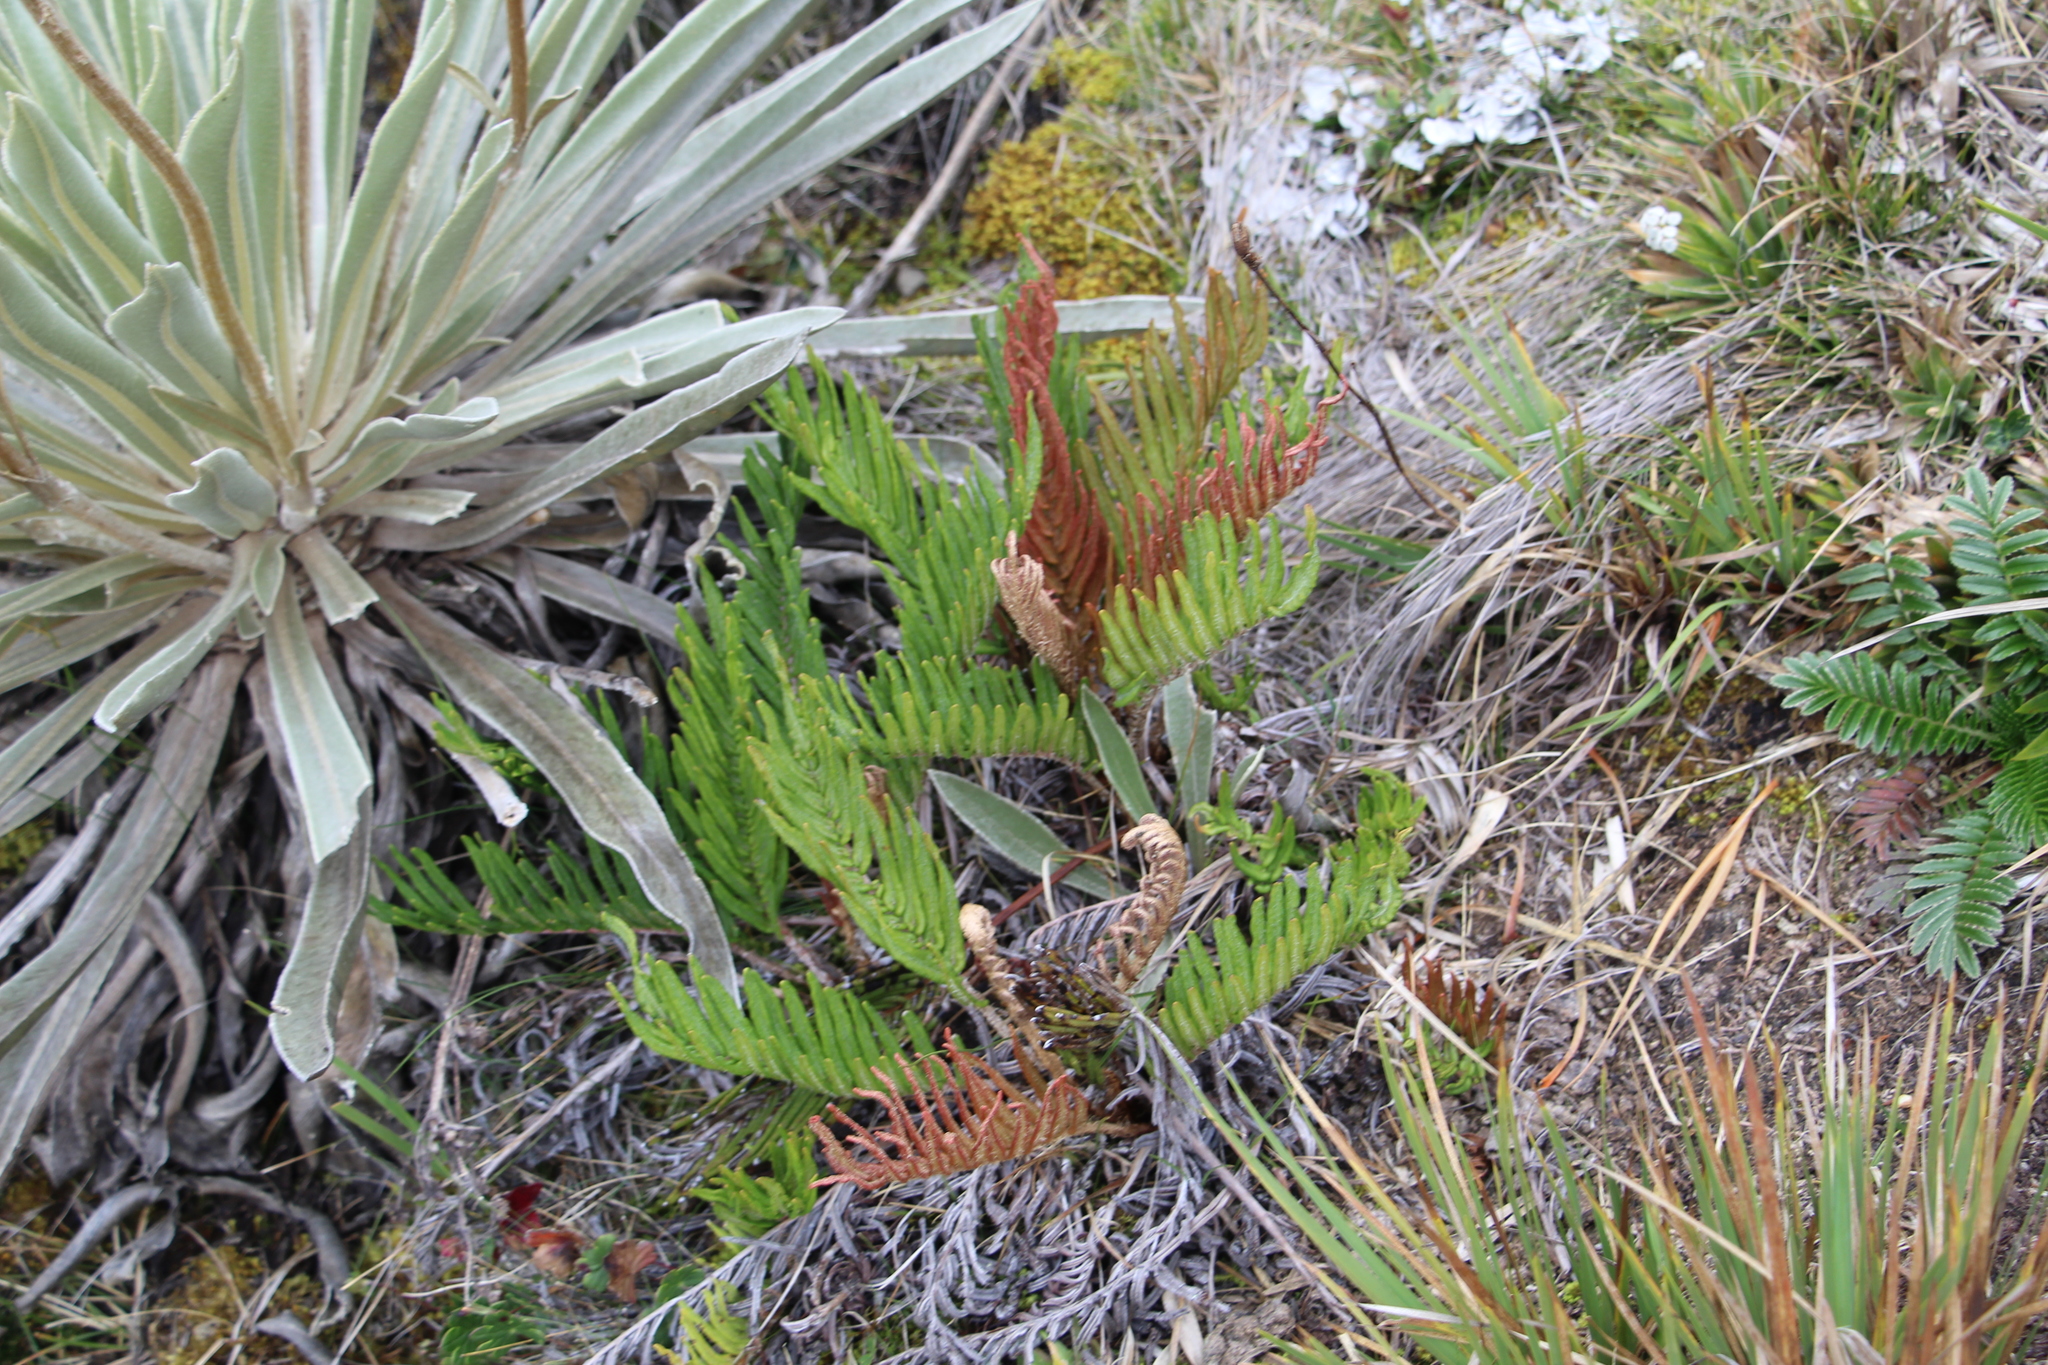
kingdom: Plantae
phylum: Tracheophyta
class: Polypodiopsida
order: Polypodiales
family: Blechnaceae
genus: Parablechnum
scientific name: Parablechnum loxense
